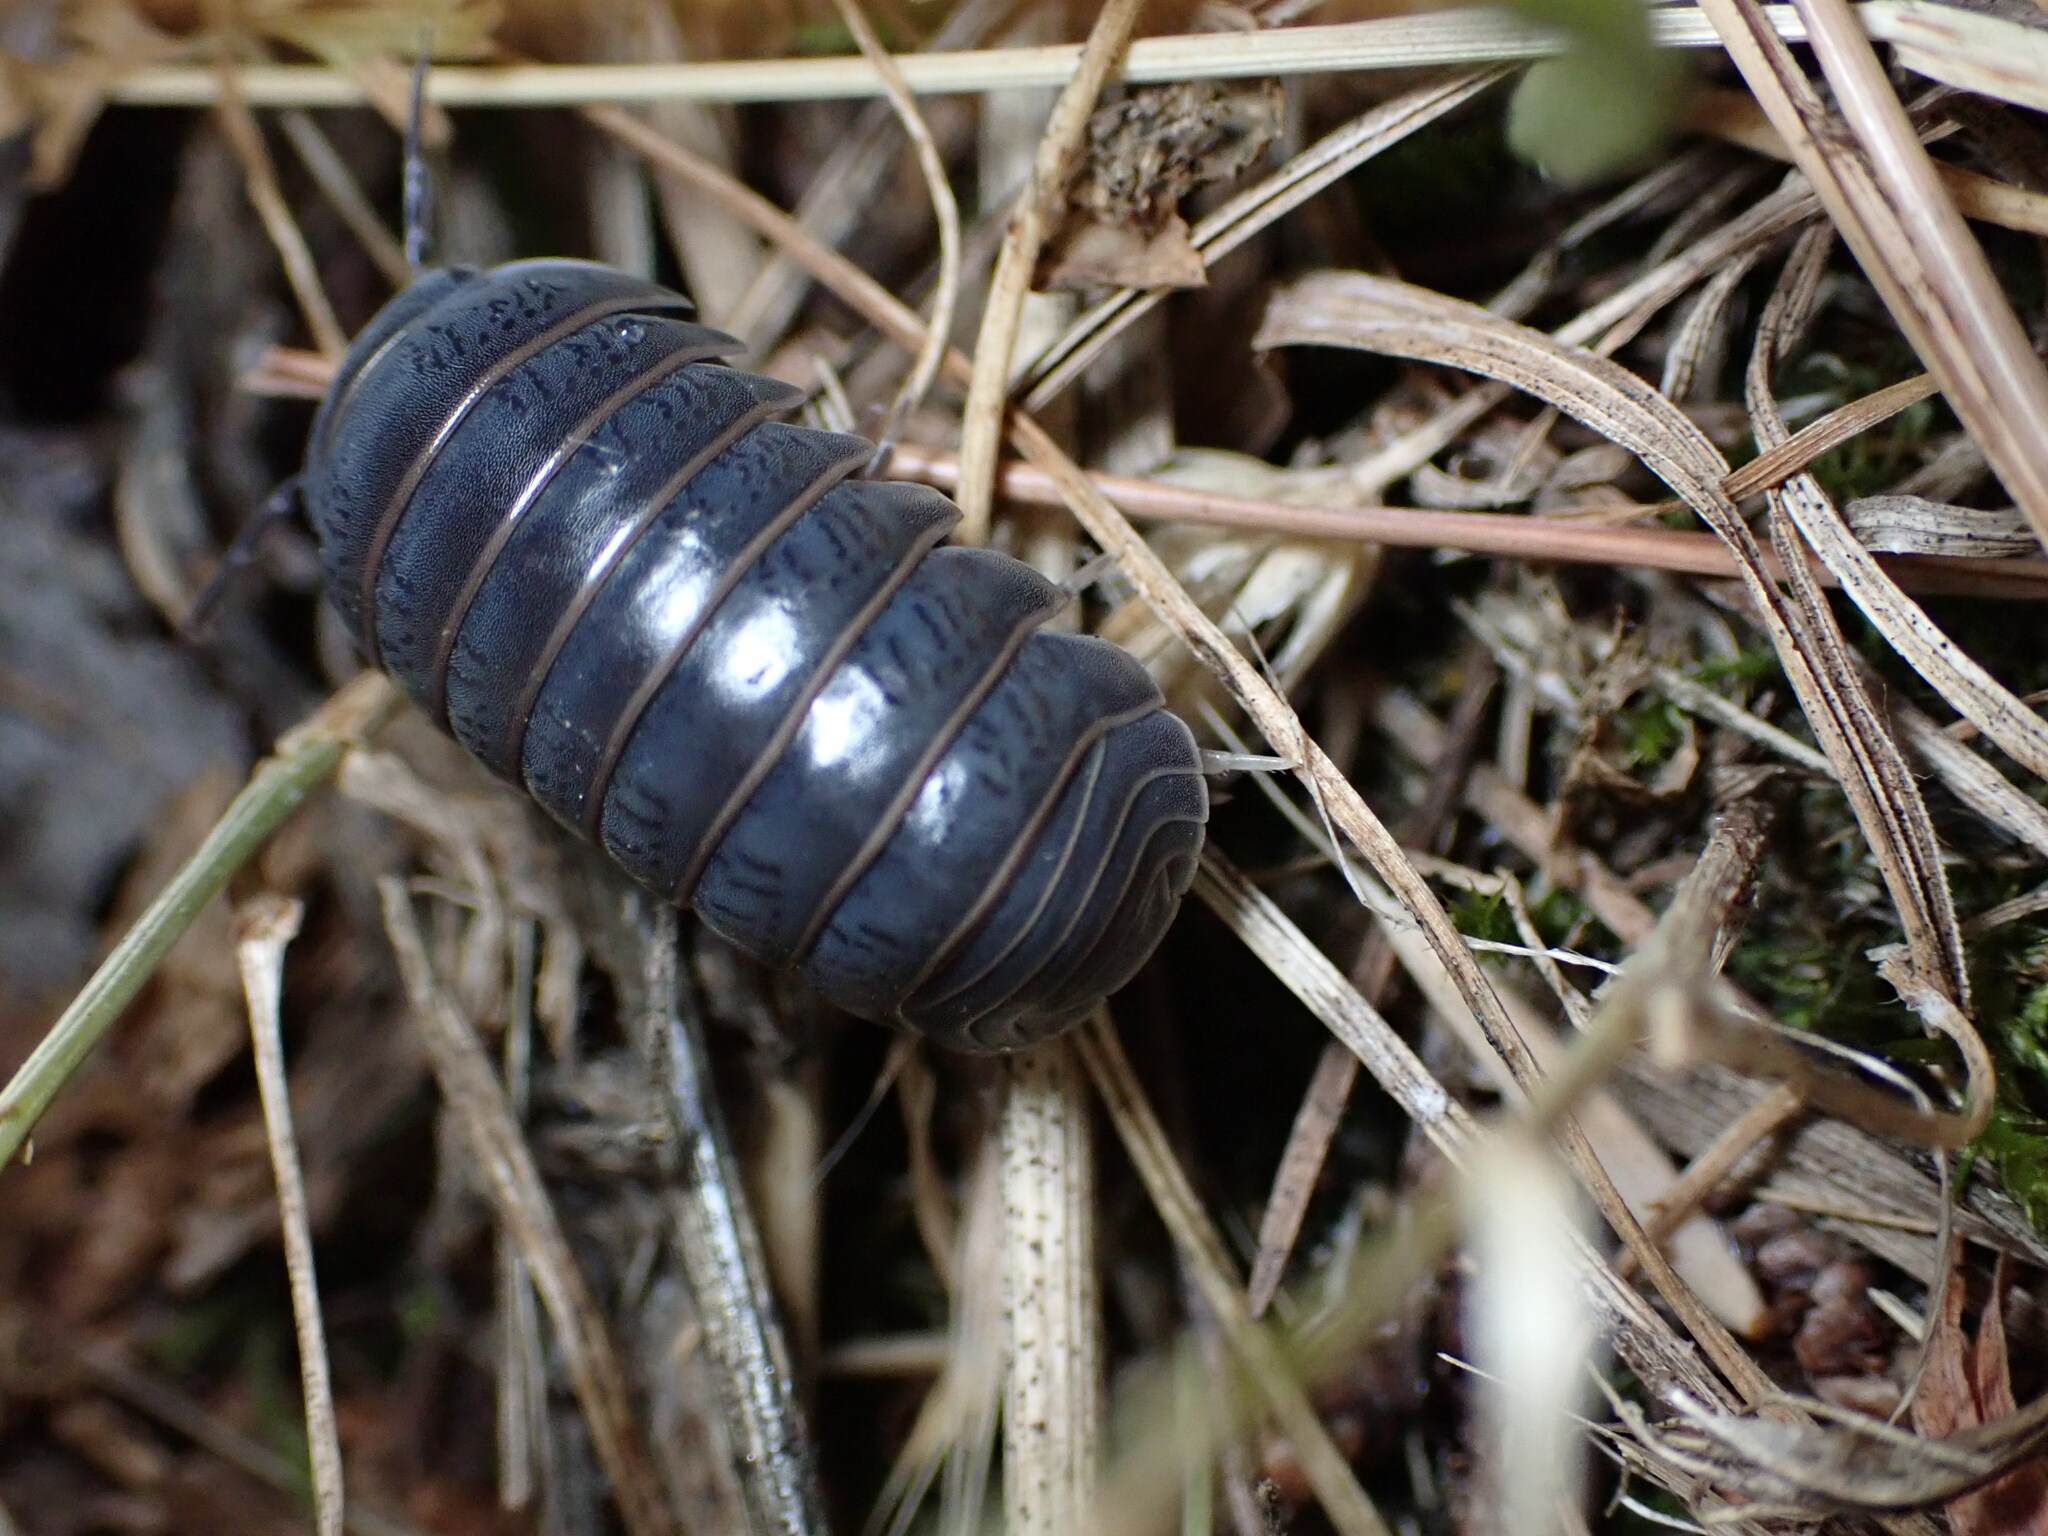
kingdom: Animalia
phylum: Arthropoda
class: Malacostraca
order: Isopoda
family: Armadillidae
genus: Armadillo
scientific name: Armadillo officinalis
